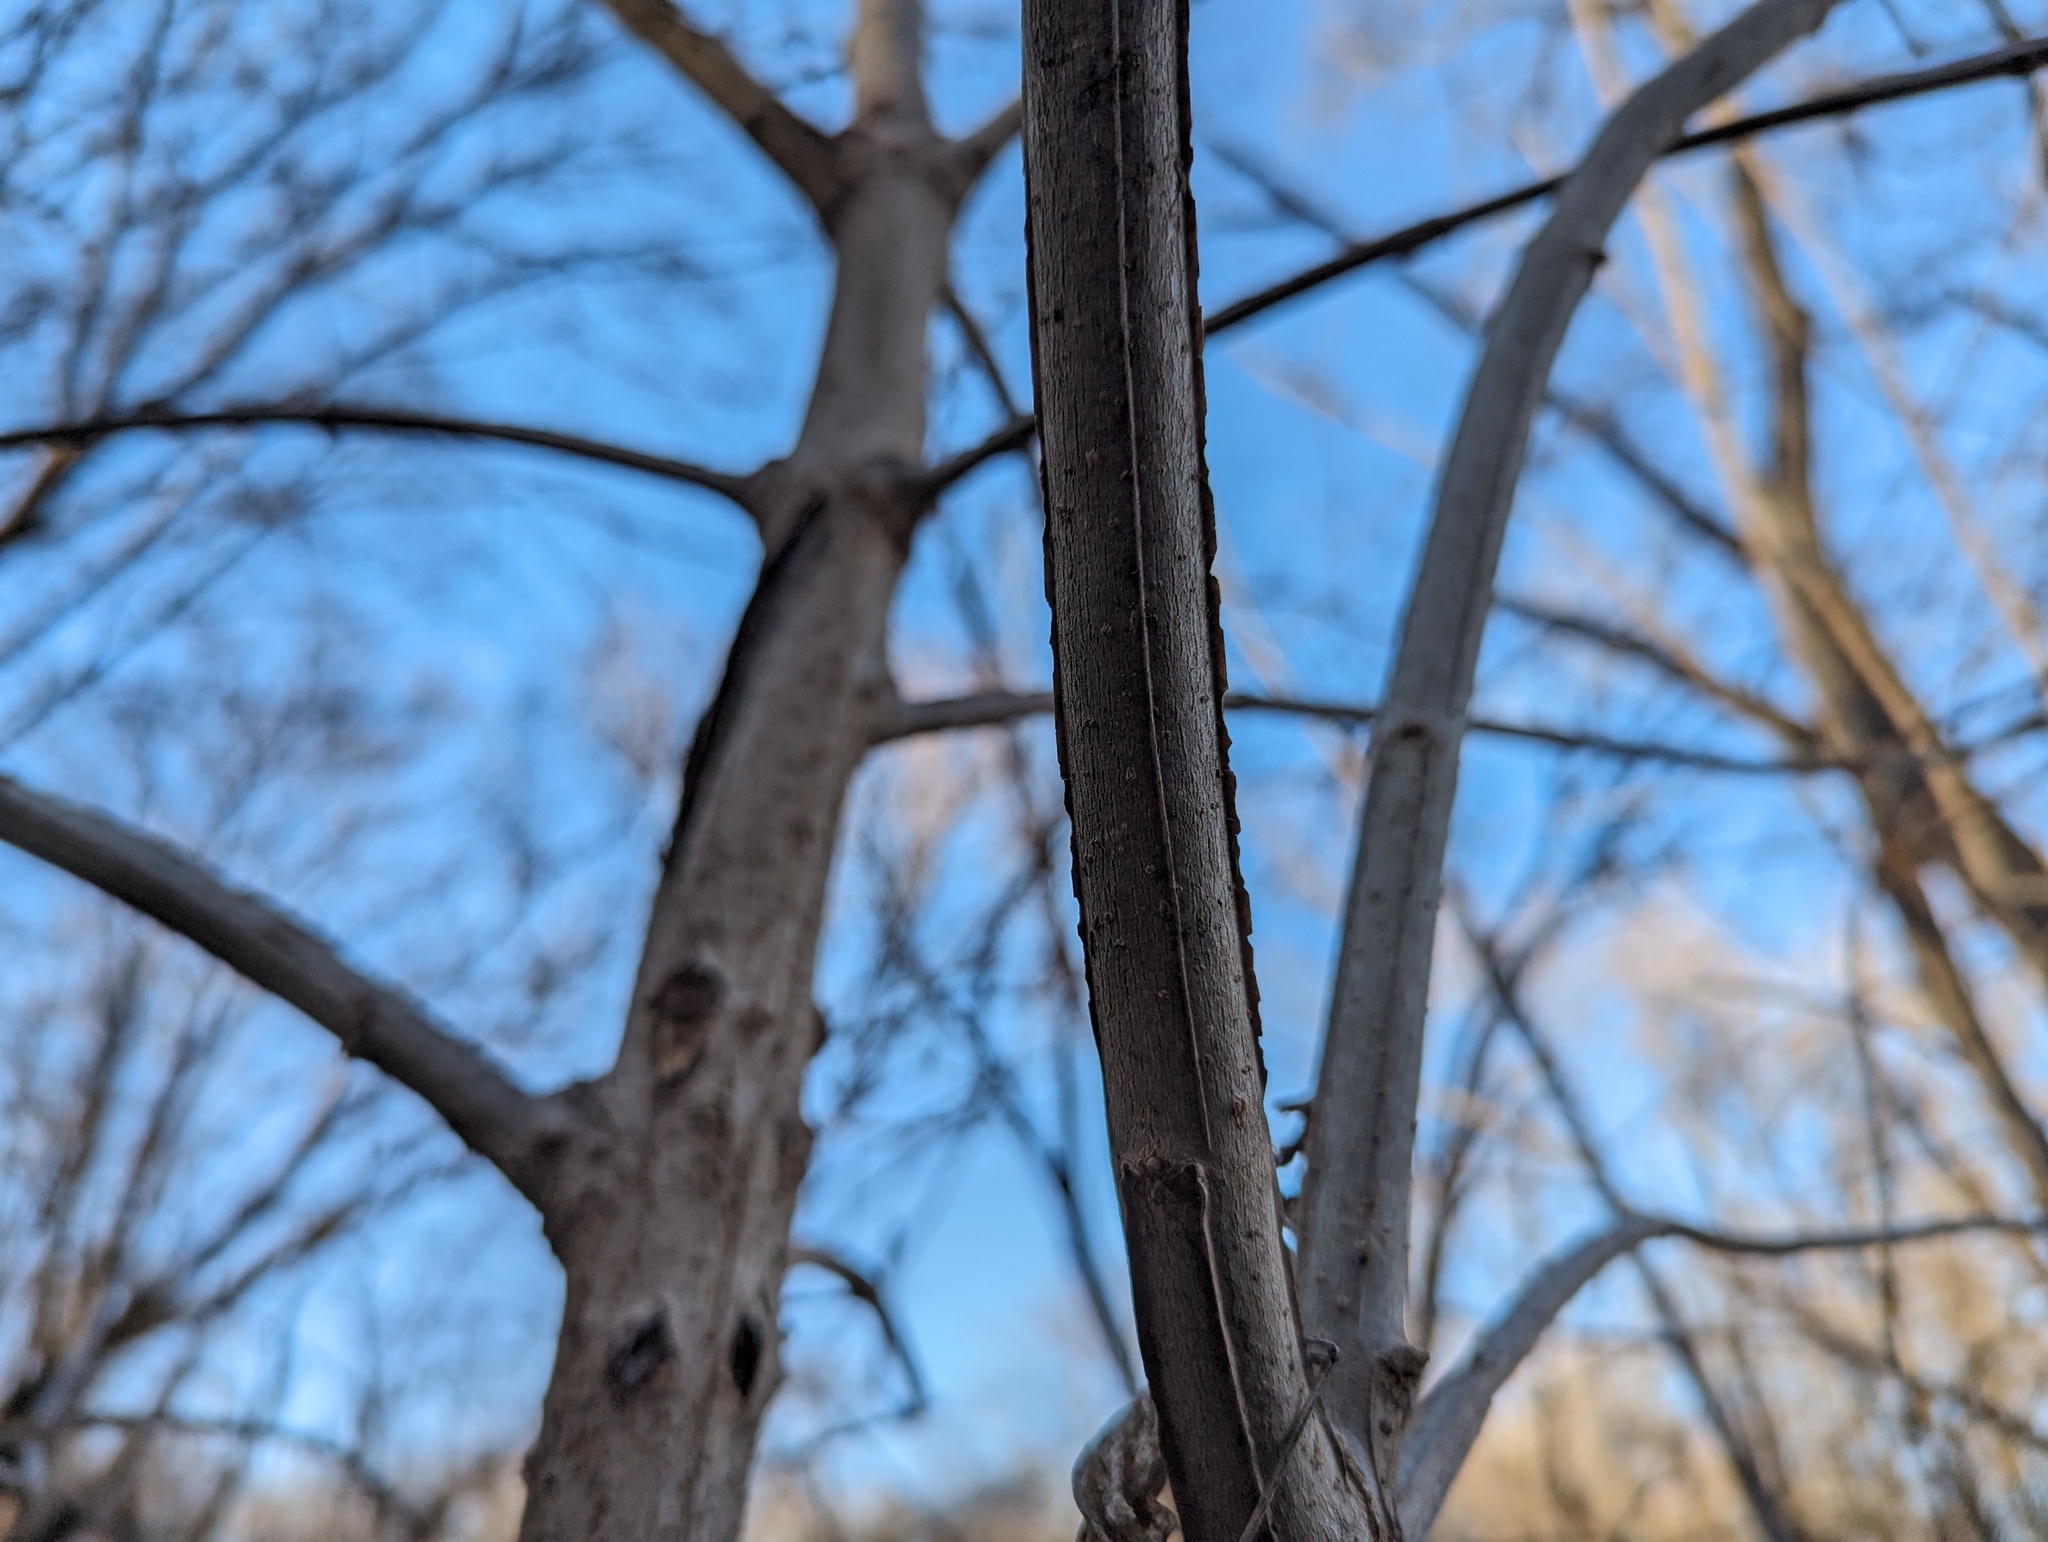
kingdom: Plantae
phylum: Tracheophyta
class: Magnoliopsida
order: Lamiales
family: Oleaceae
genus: Fraxinus
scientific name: Fraxinus quadrangulata
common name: Blue ash
